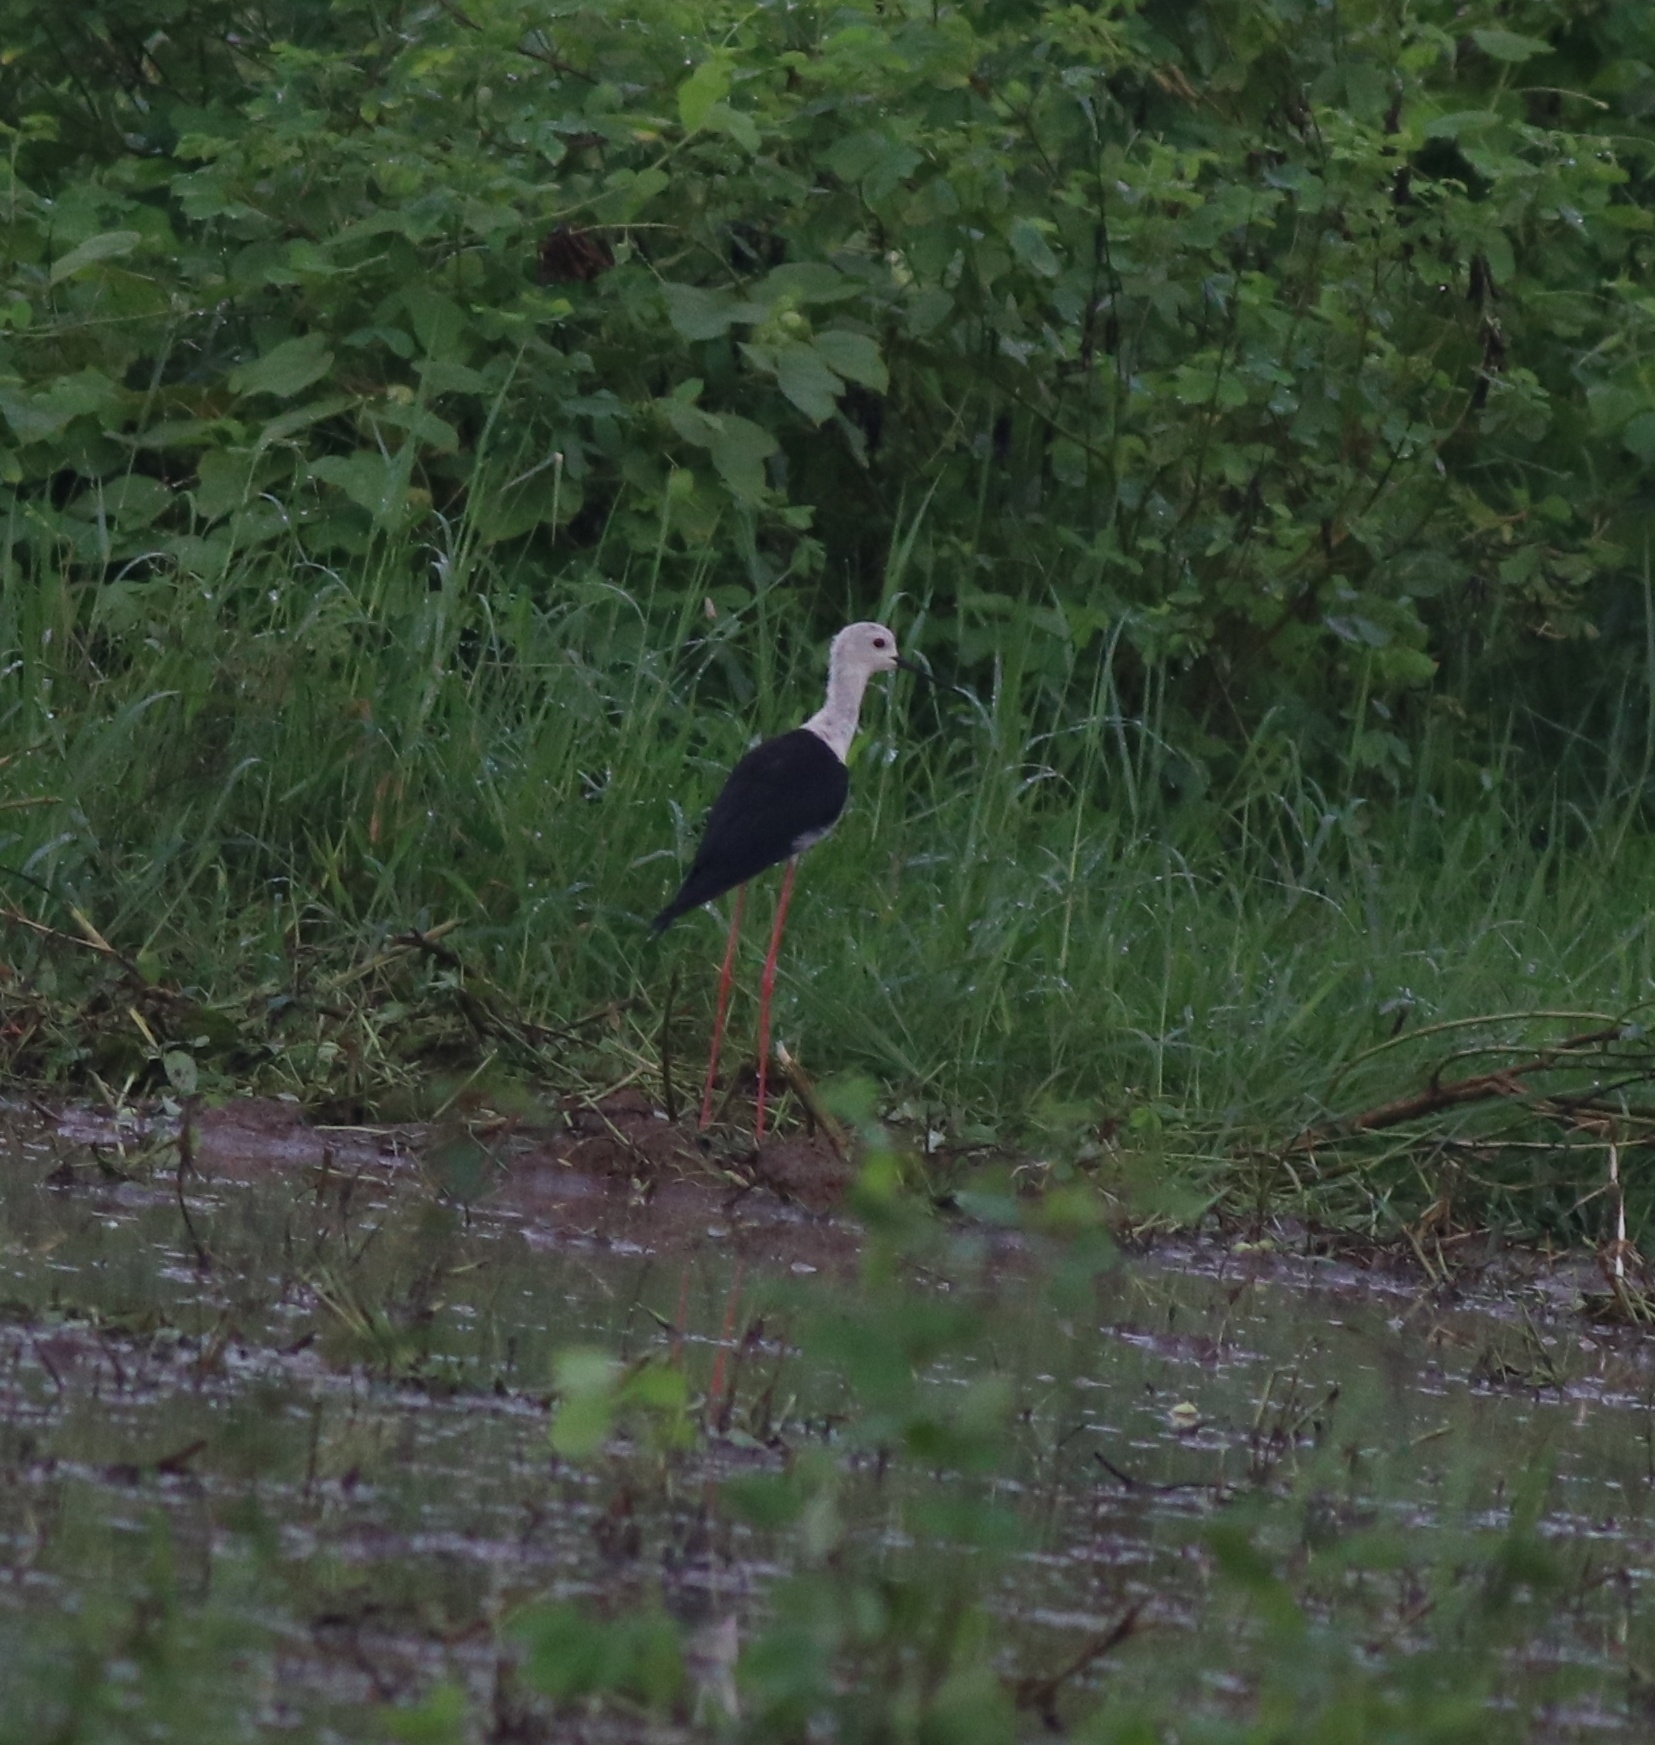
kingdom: Animalia
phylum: Chordata
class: Aves
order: Charadriiformes
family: Recurvirostridae
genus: Himantopus
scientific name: Himantopus himantopus
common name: Black-winged stilt
